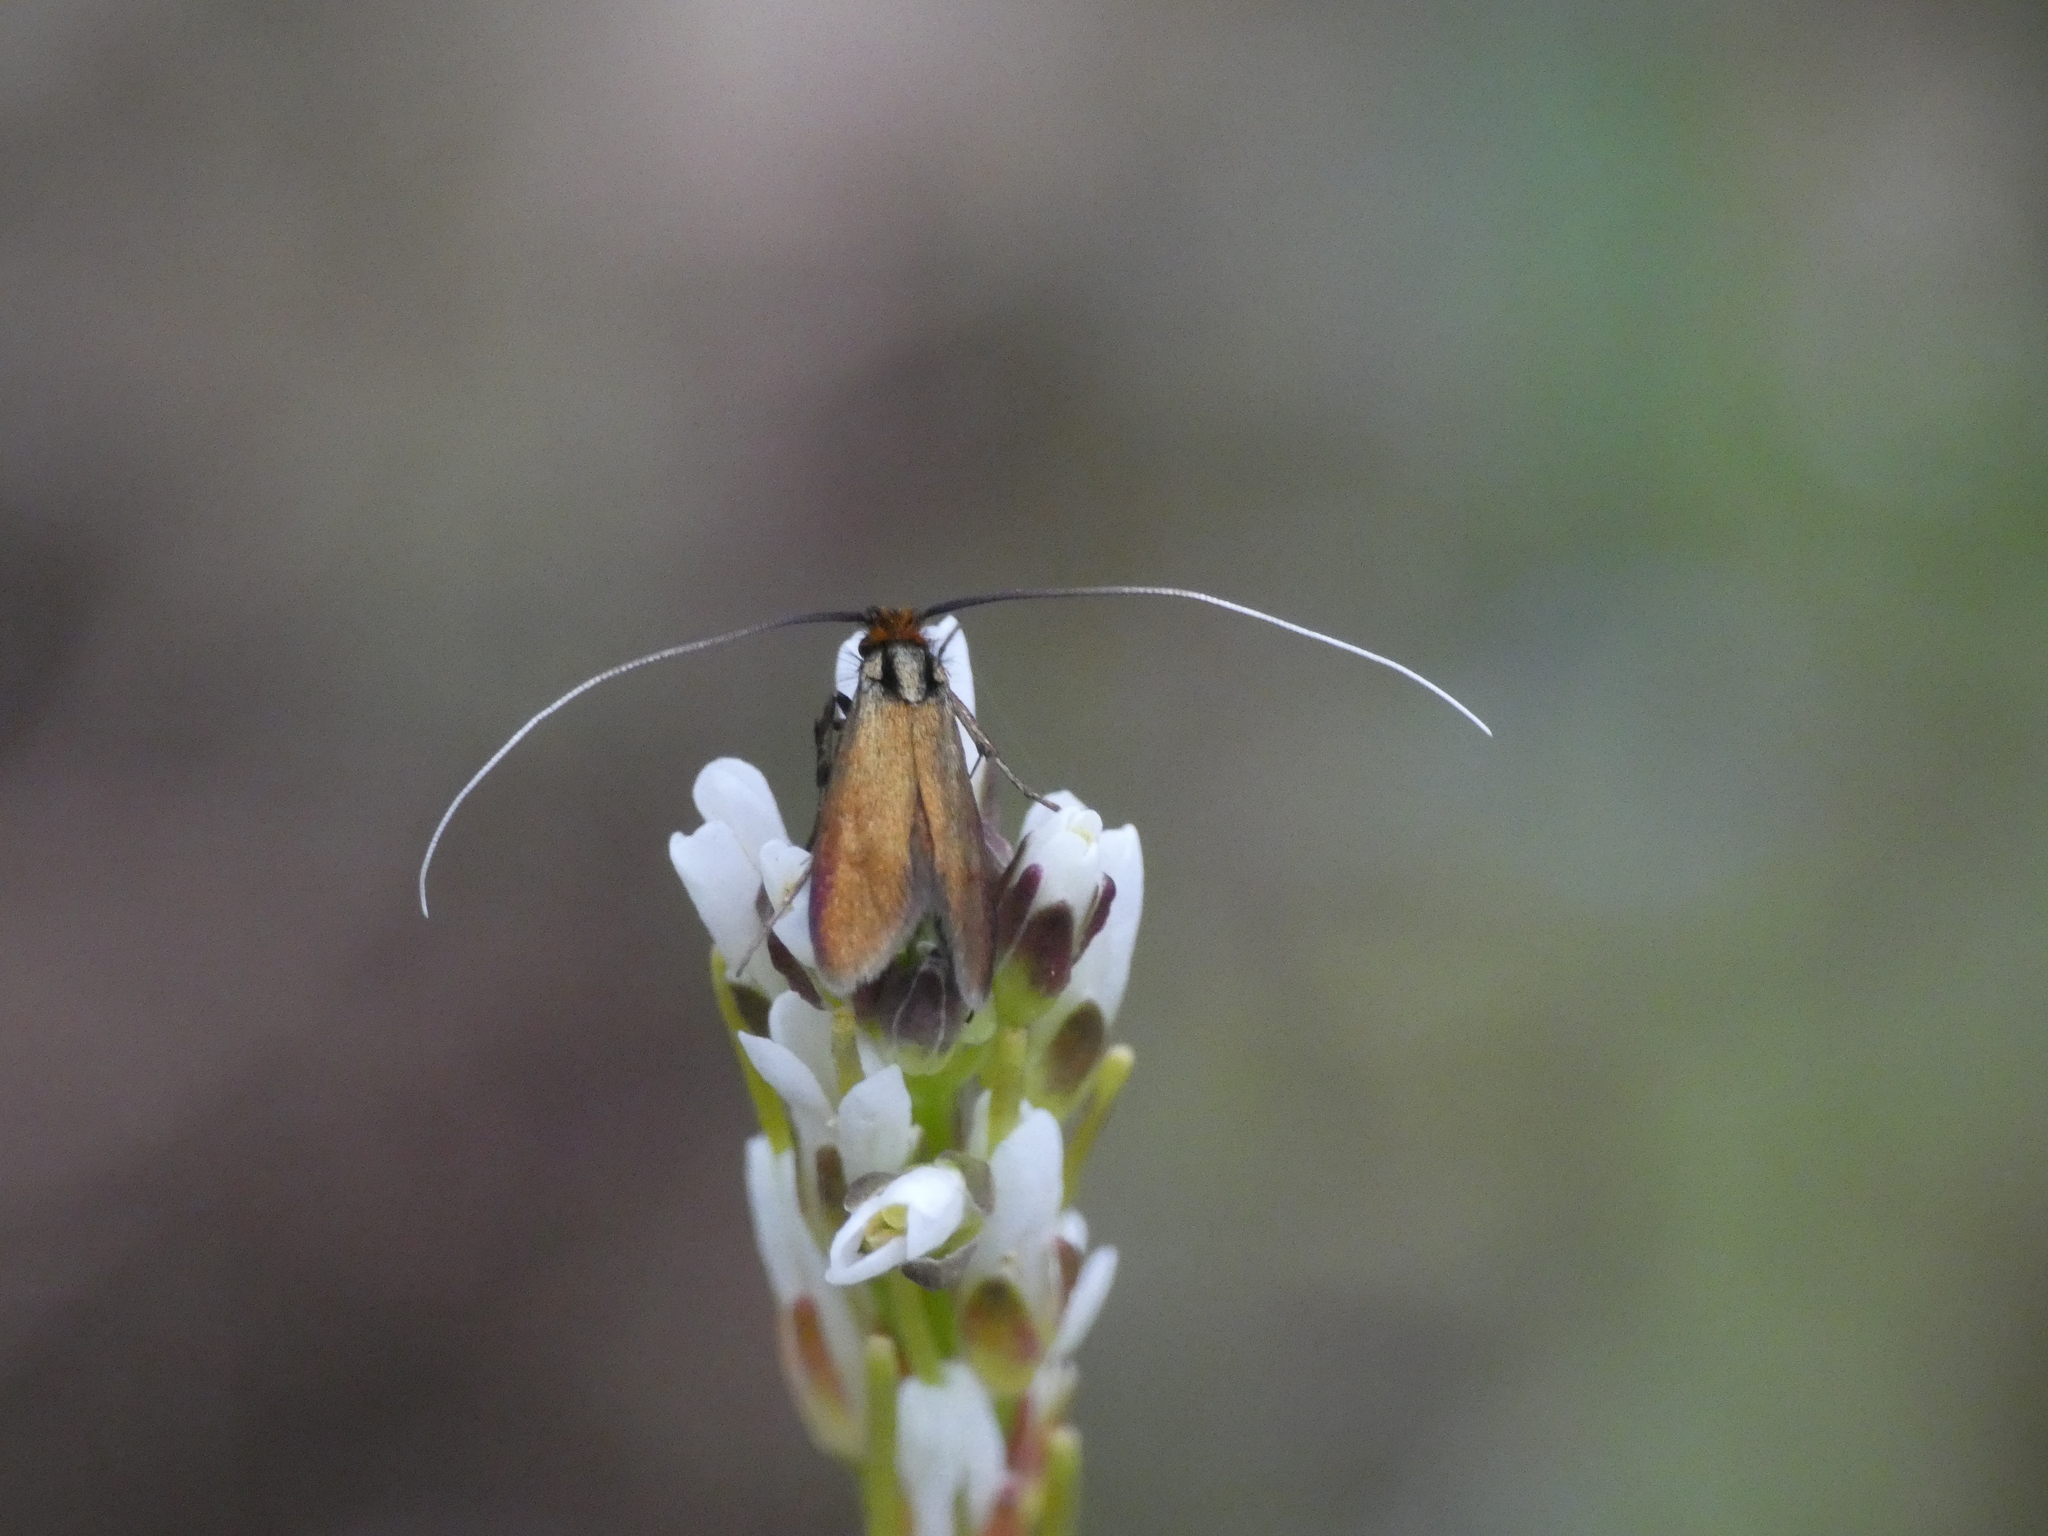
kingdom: Animalia
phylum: Arthropoda
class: Insecta
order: Lepidoptera
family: Adelidae
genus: Cauchas
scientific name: Cauchas rufimitrella
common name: Meadow long-horn
